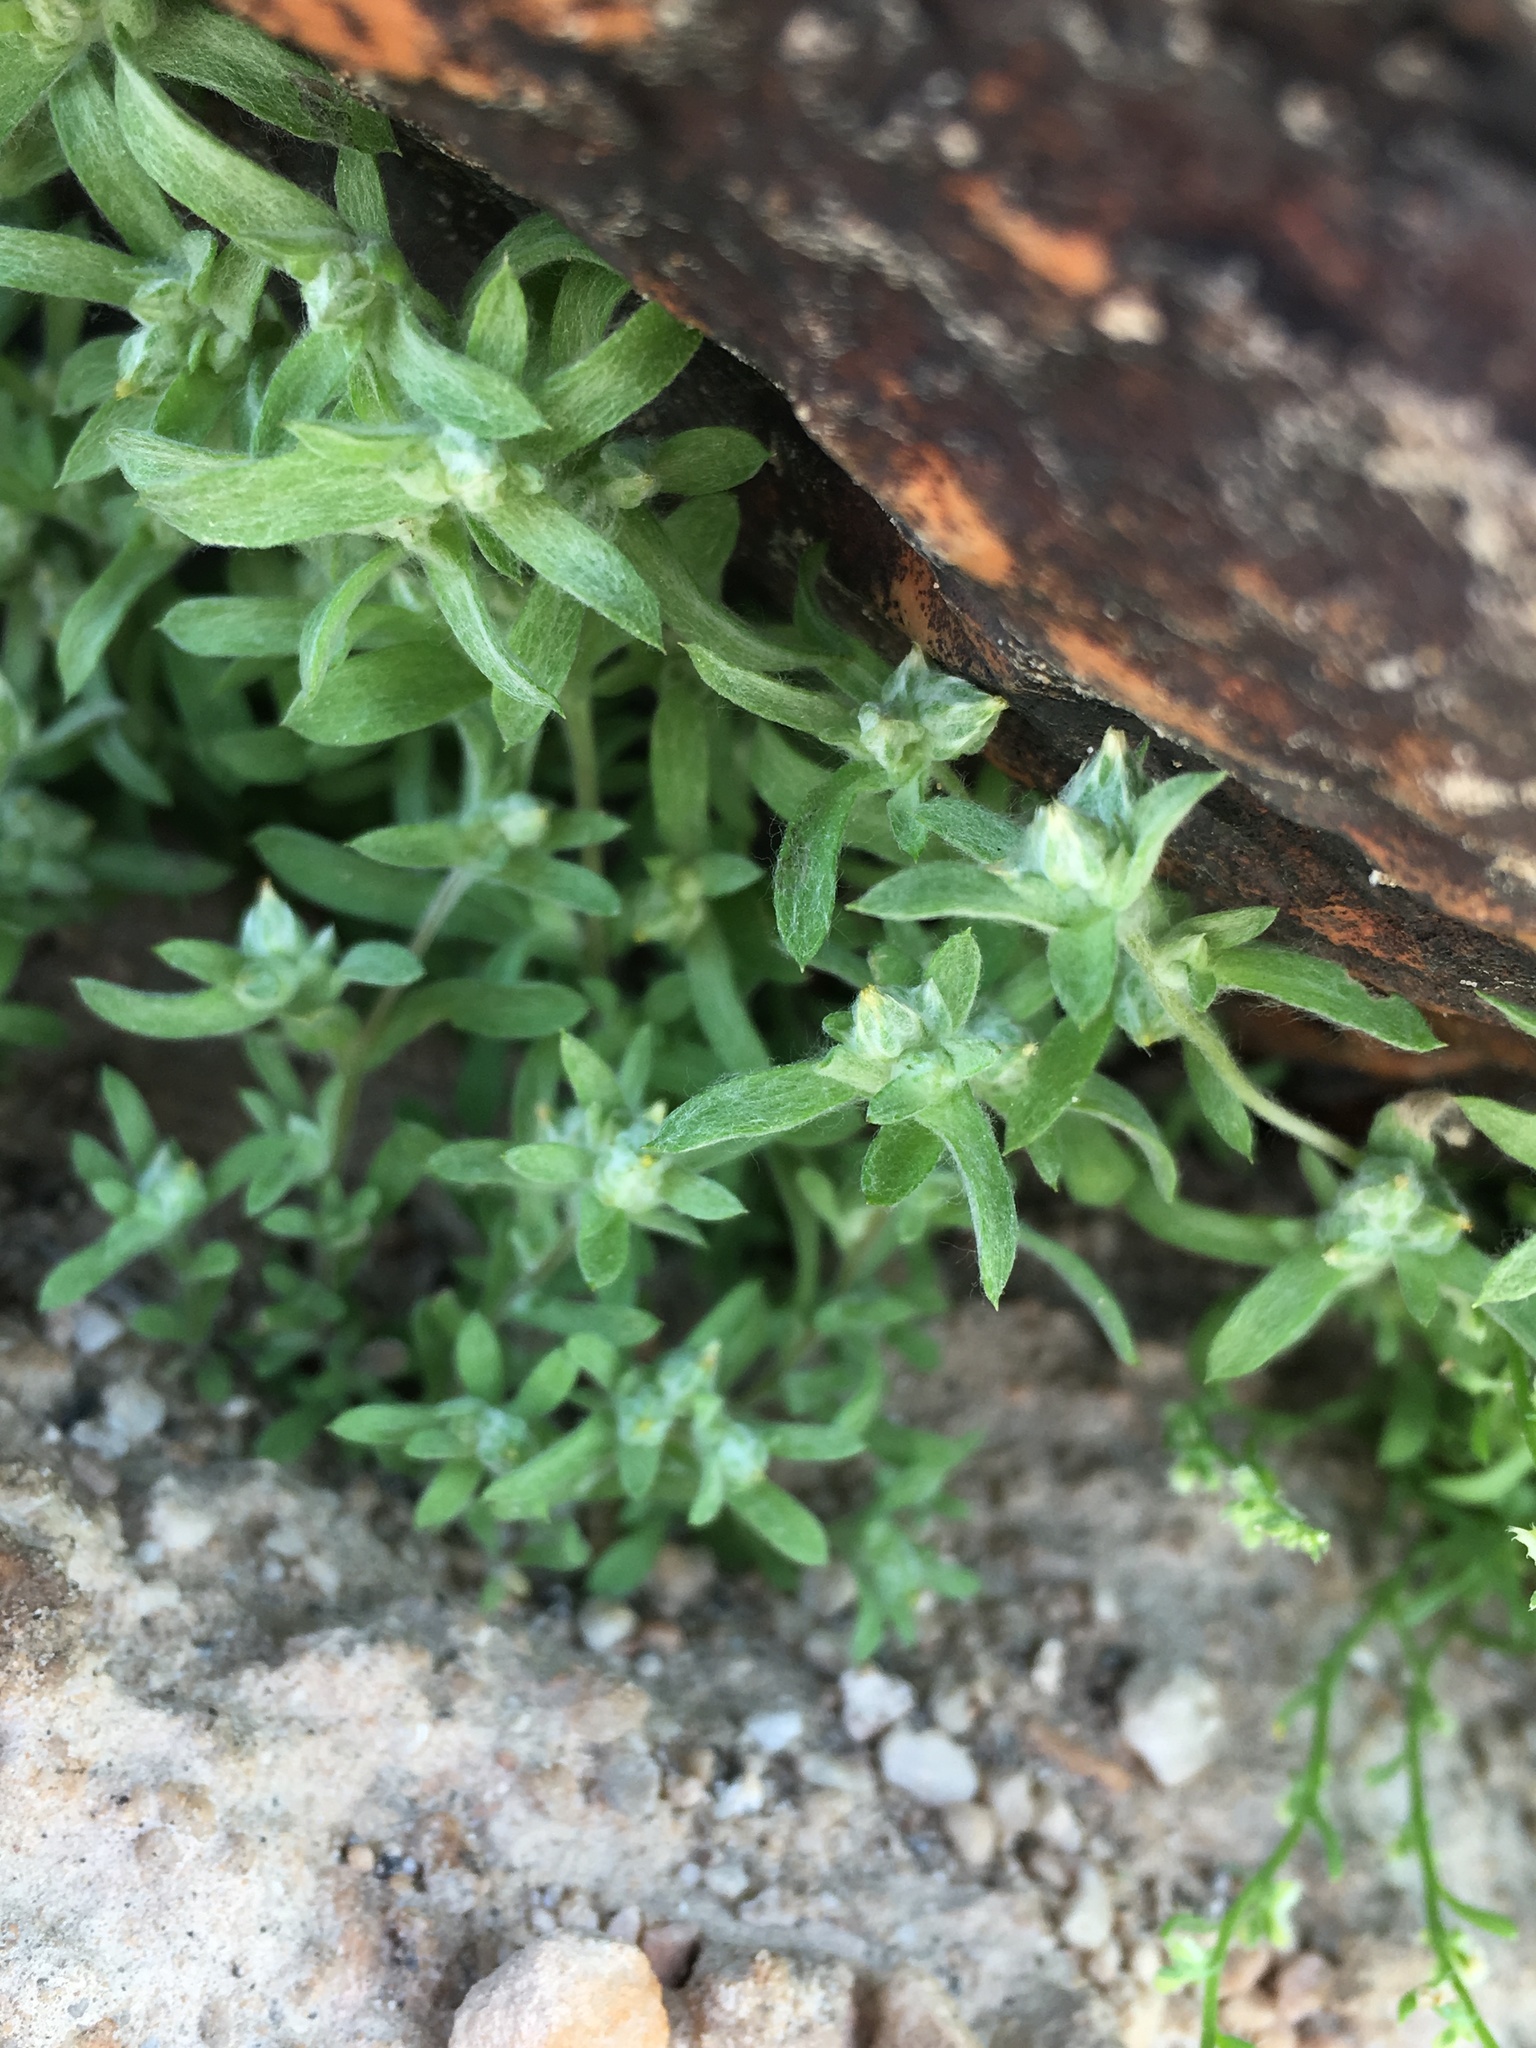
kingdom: Plantae
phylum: Tracheophyta
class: Magnoliopsida
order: Asterales
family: Asteraceae
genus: Logfia
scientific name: Logfia californica
